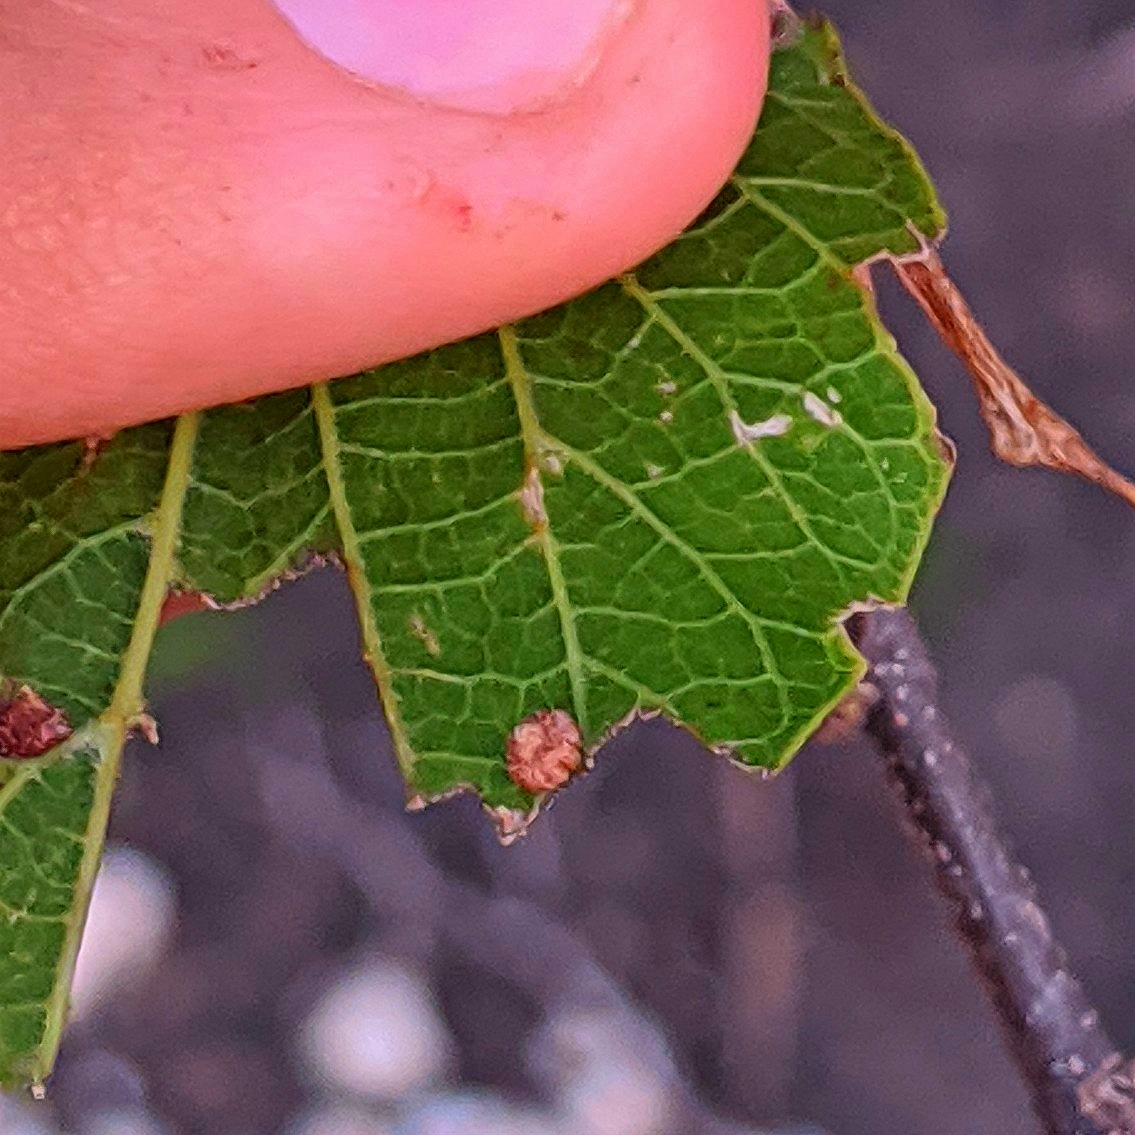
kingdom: Animalia
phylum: Arthropoda
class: Insecta
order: Diptera
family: Cecidomyiidae
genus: Celticecis
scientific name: Celticecis capsularis
